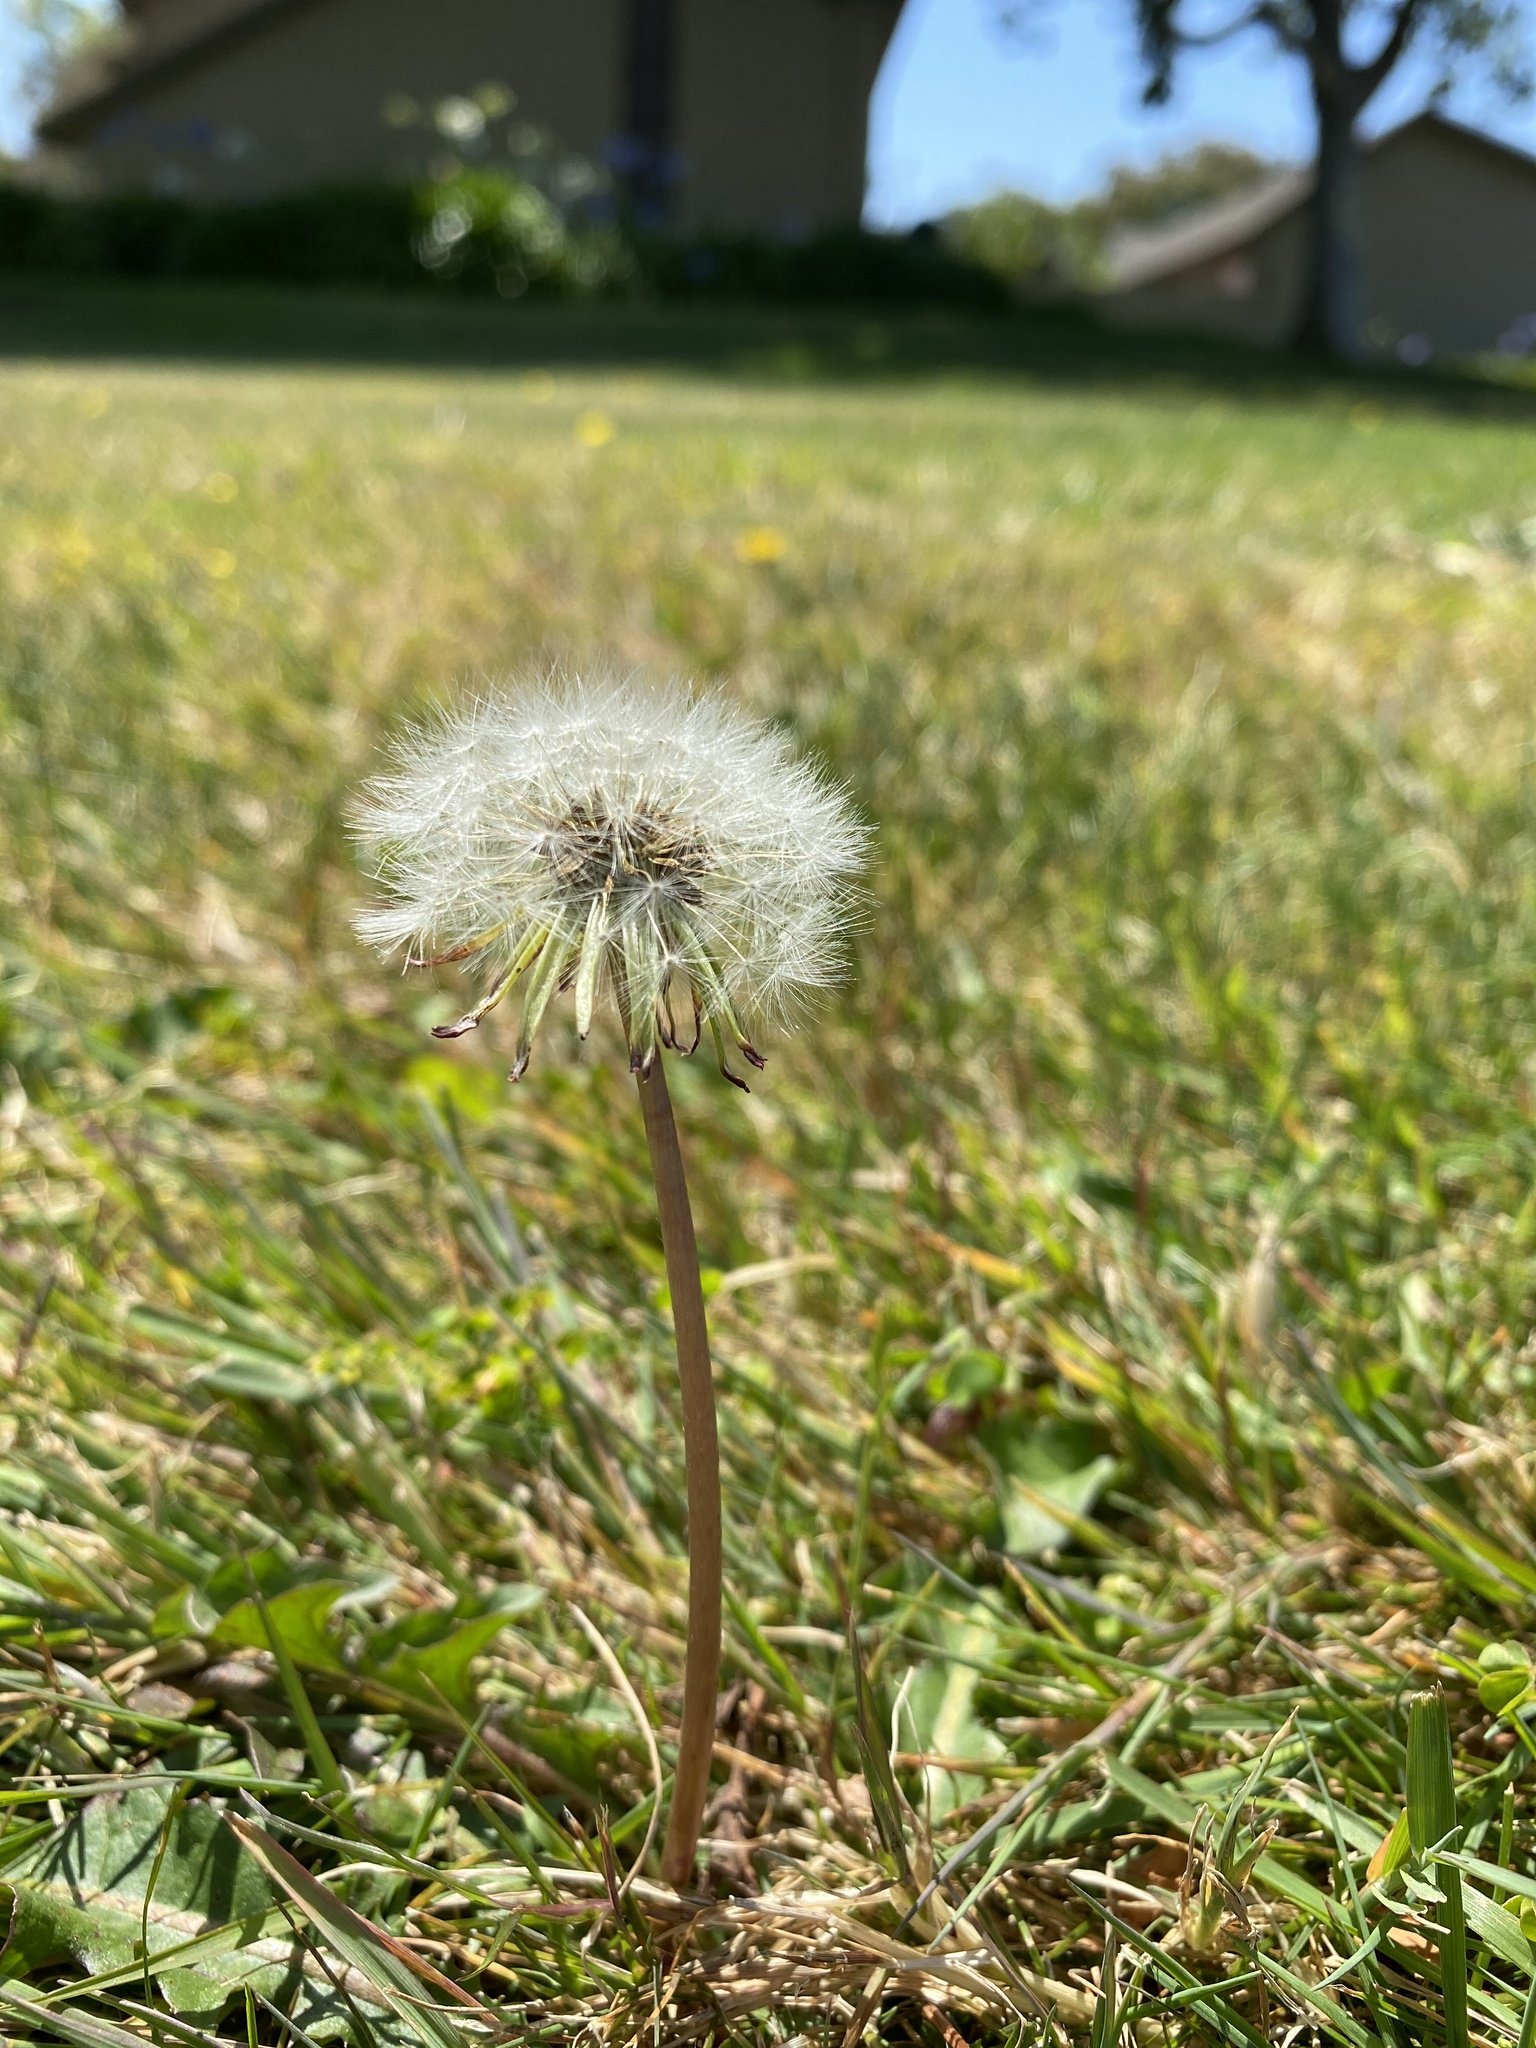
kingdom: Plantae
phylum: Tracheophyta
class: Magnoliopsida
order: Asterales
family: Asteraceae
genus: Taraxacum
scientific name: Taraxacum officinale
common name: Common dandelion
